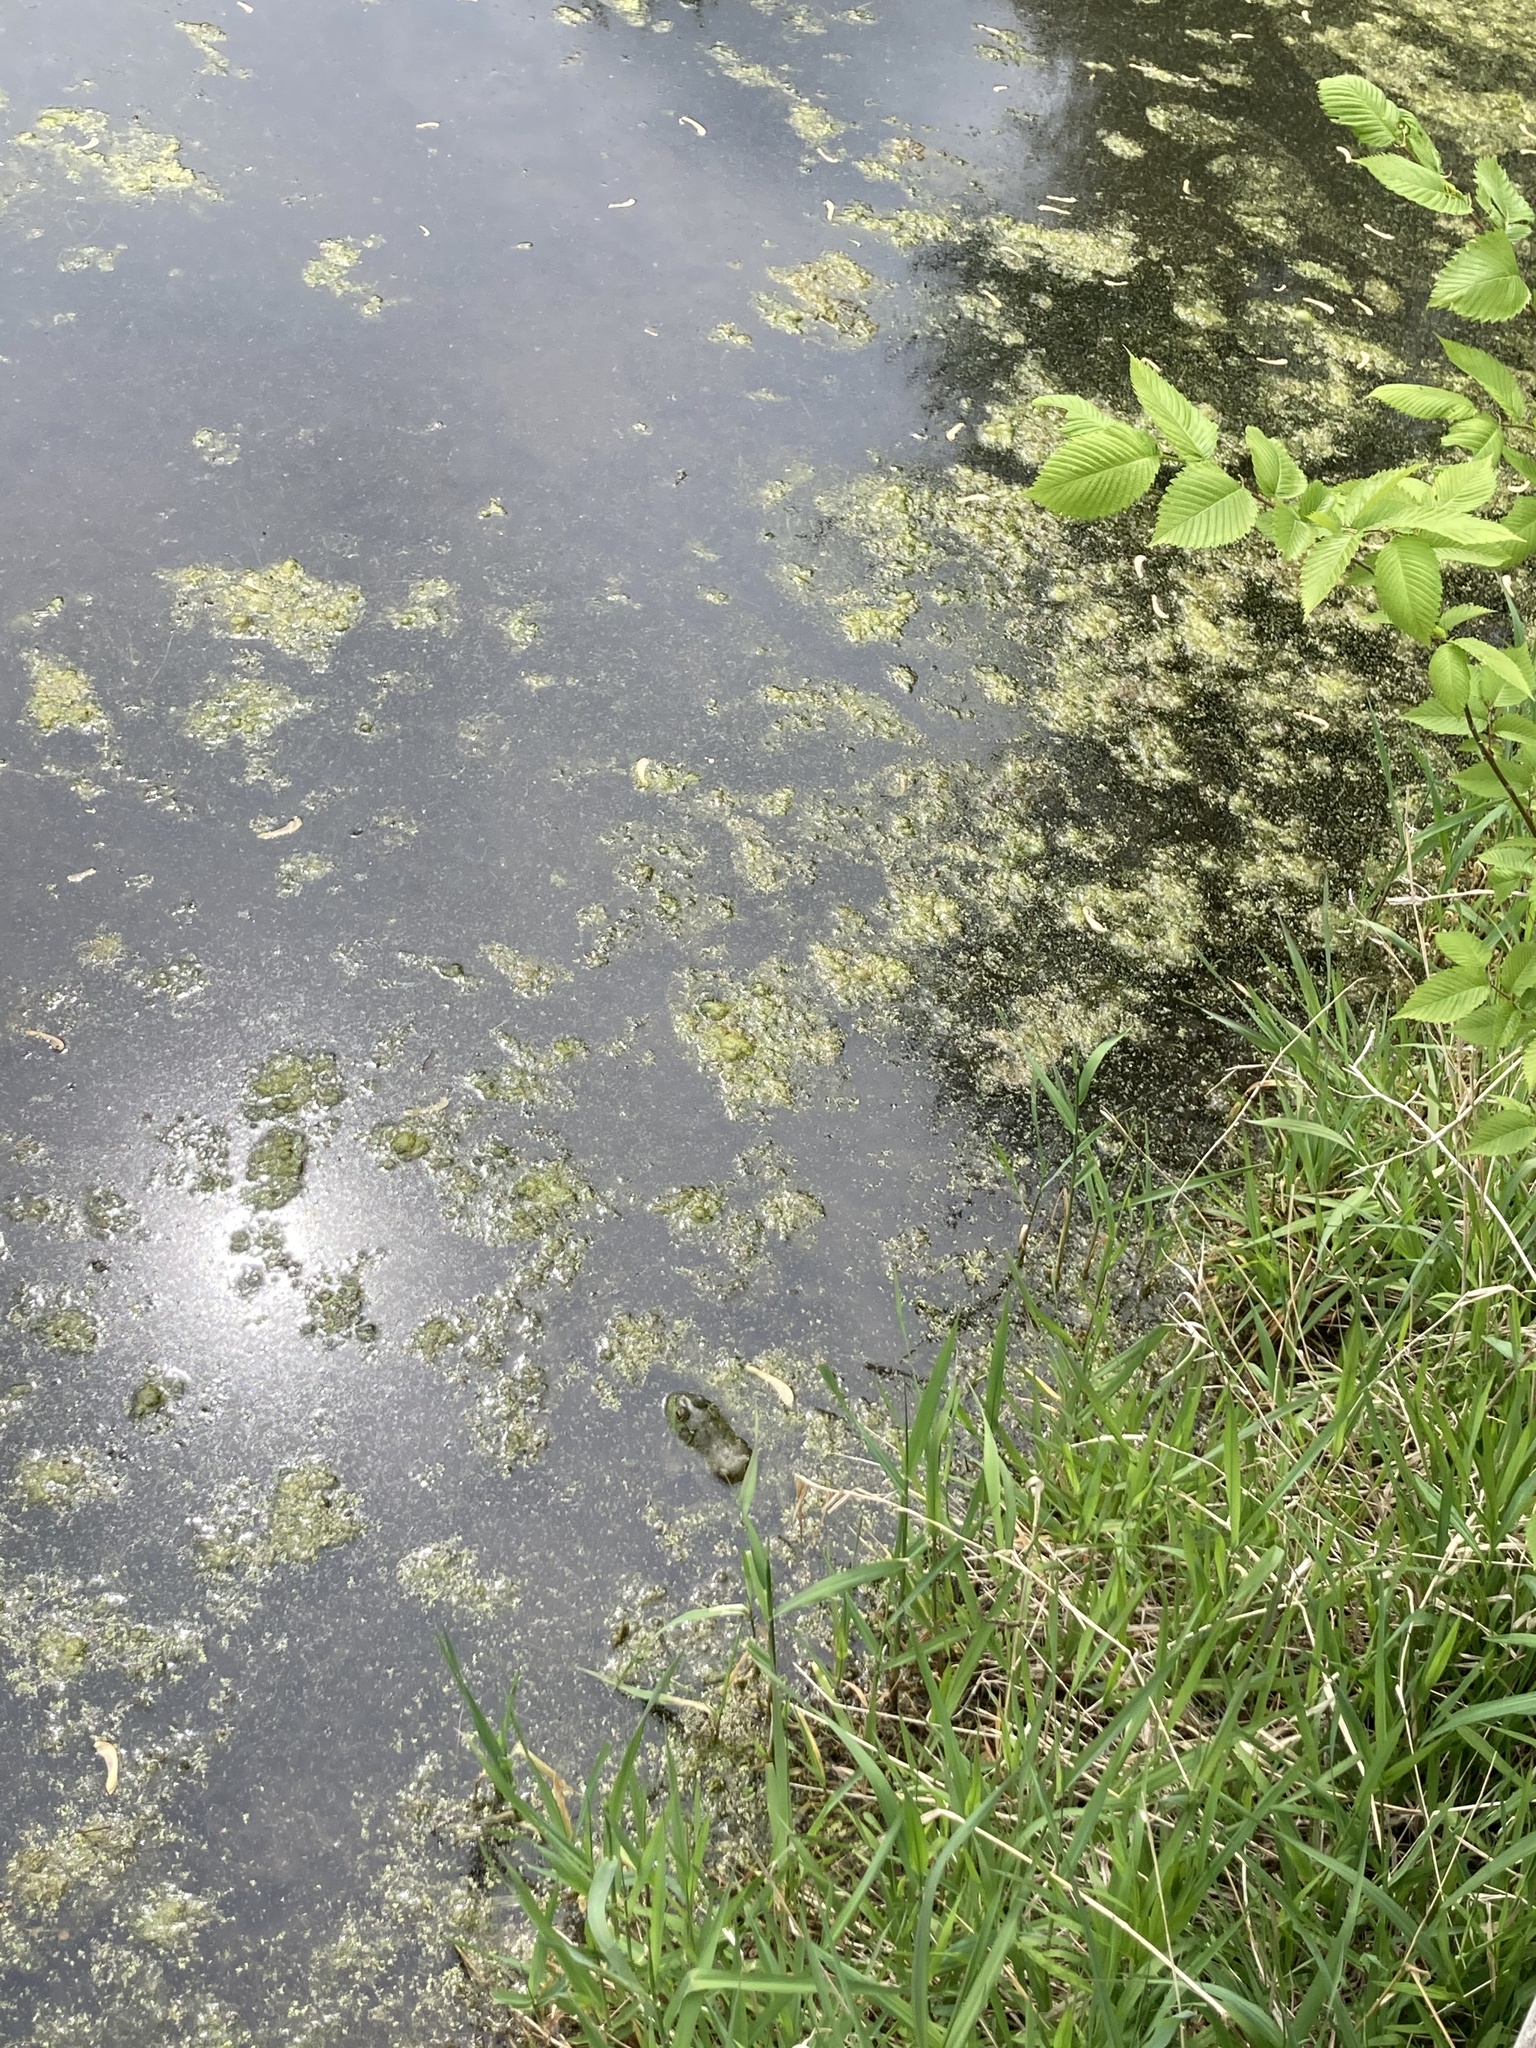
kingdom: Animalia
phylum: Chordata
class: Amphibia
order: Anura
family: Ranidae
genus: Lithobates
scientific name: Lithobates catesbeianus
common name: American bullfrog
